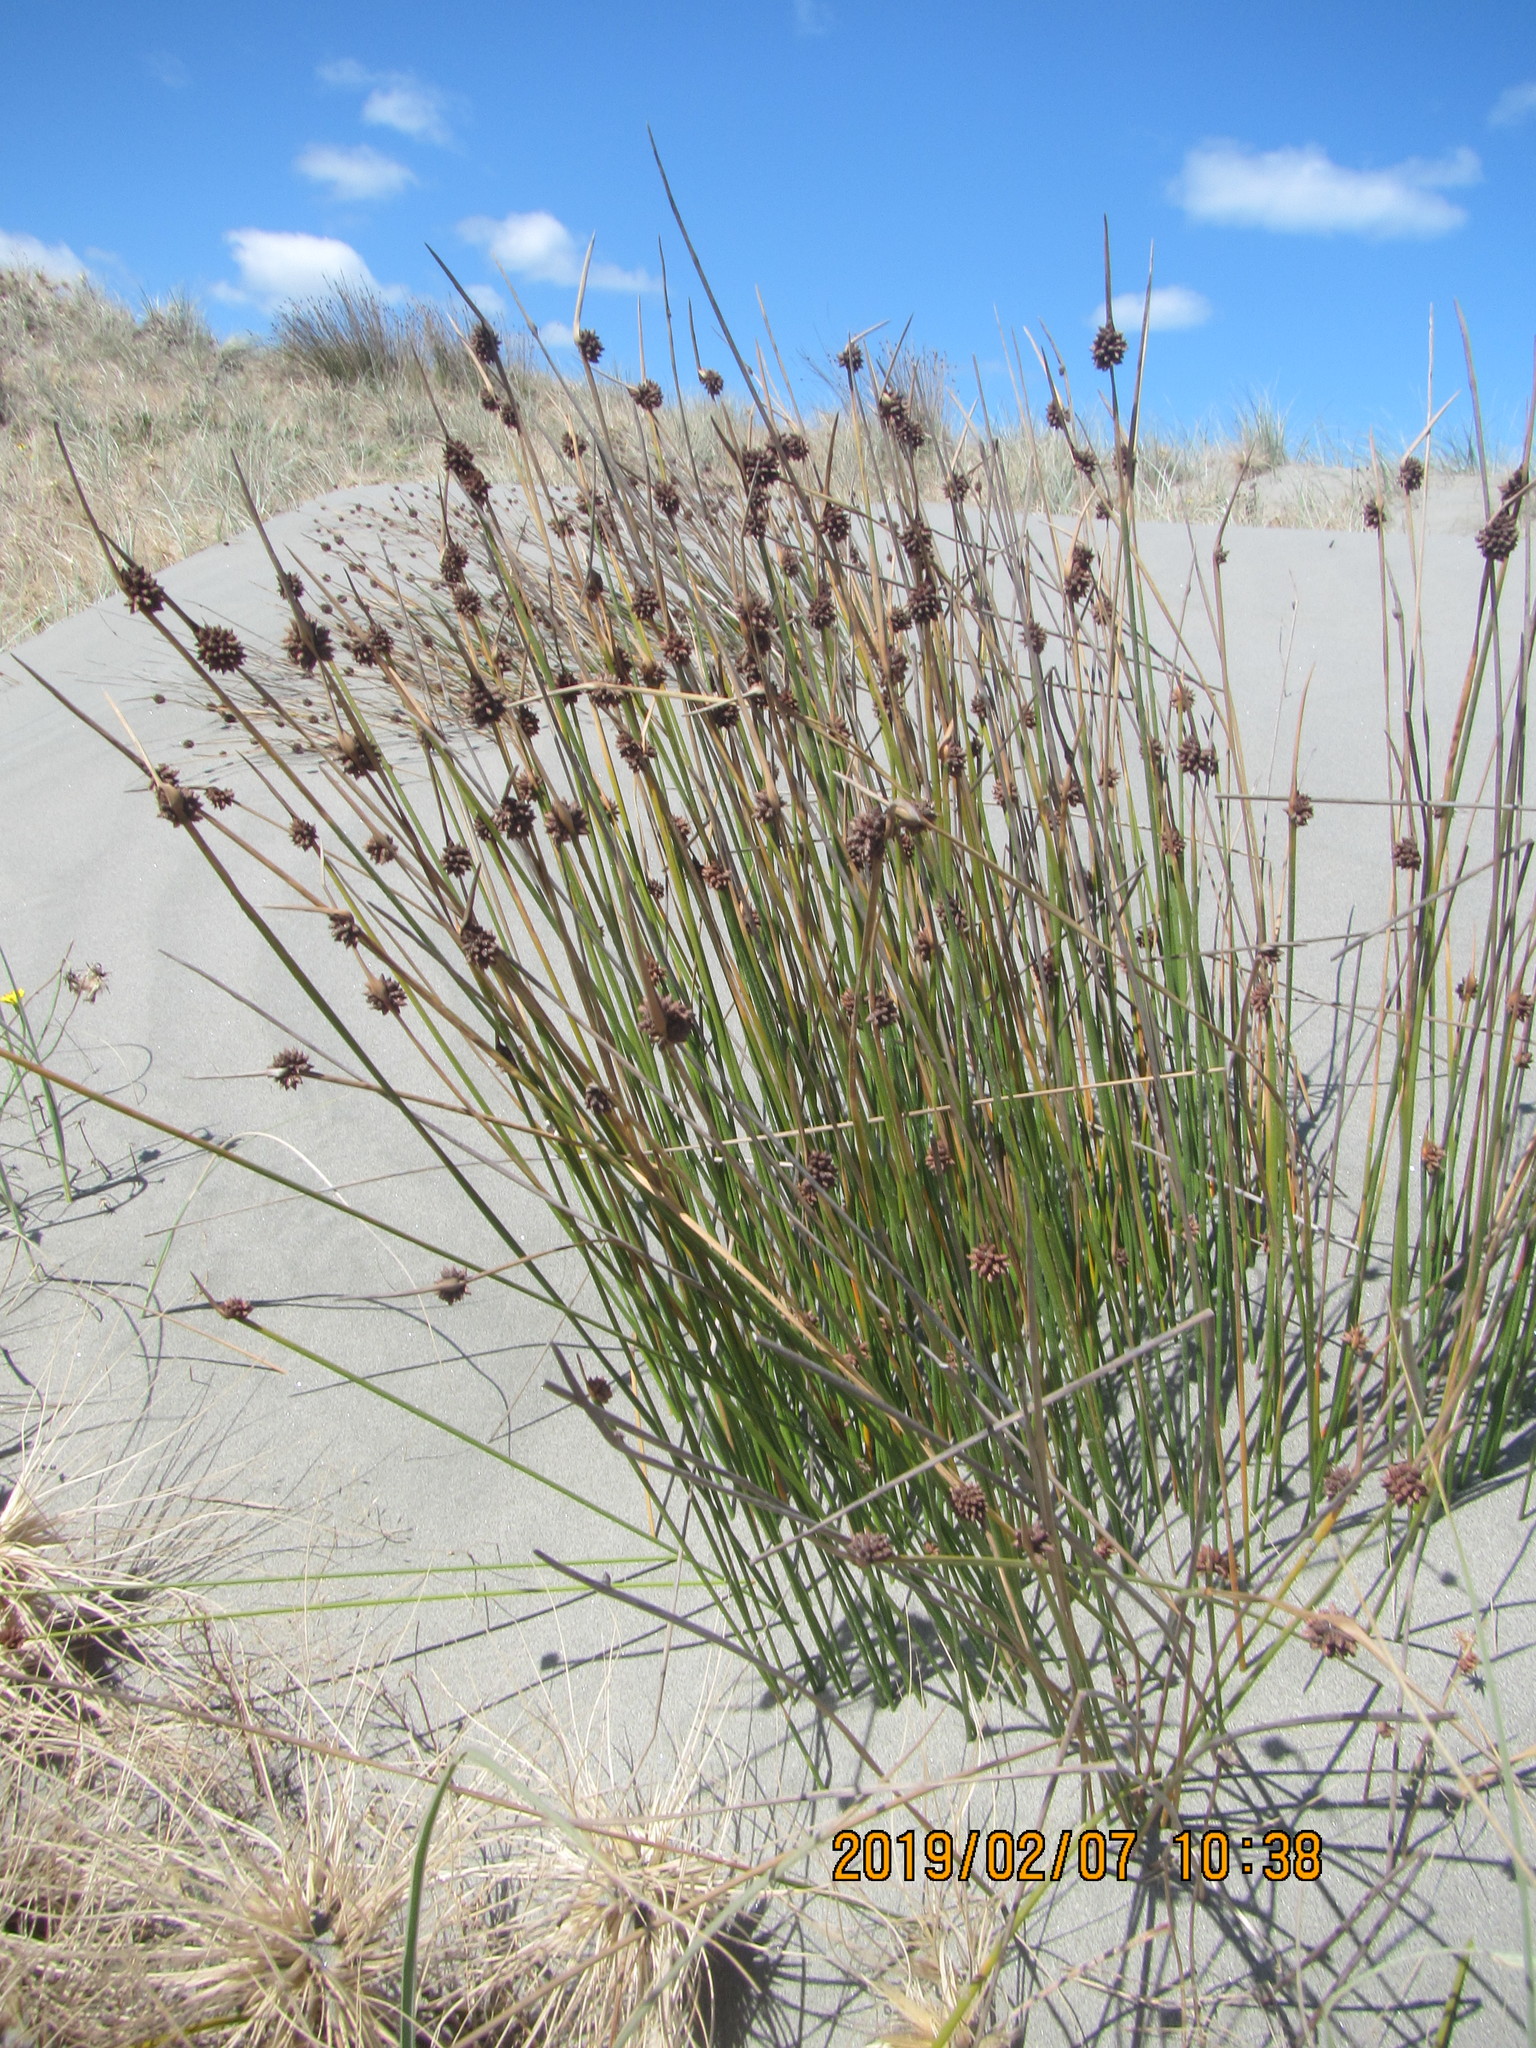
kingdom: Plantae
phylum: Tracheophyta
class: Liliopsida
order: Poales
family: Cyperaceae
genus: Ficinia
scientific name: Ficinia nodosa
